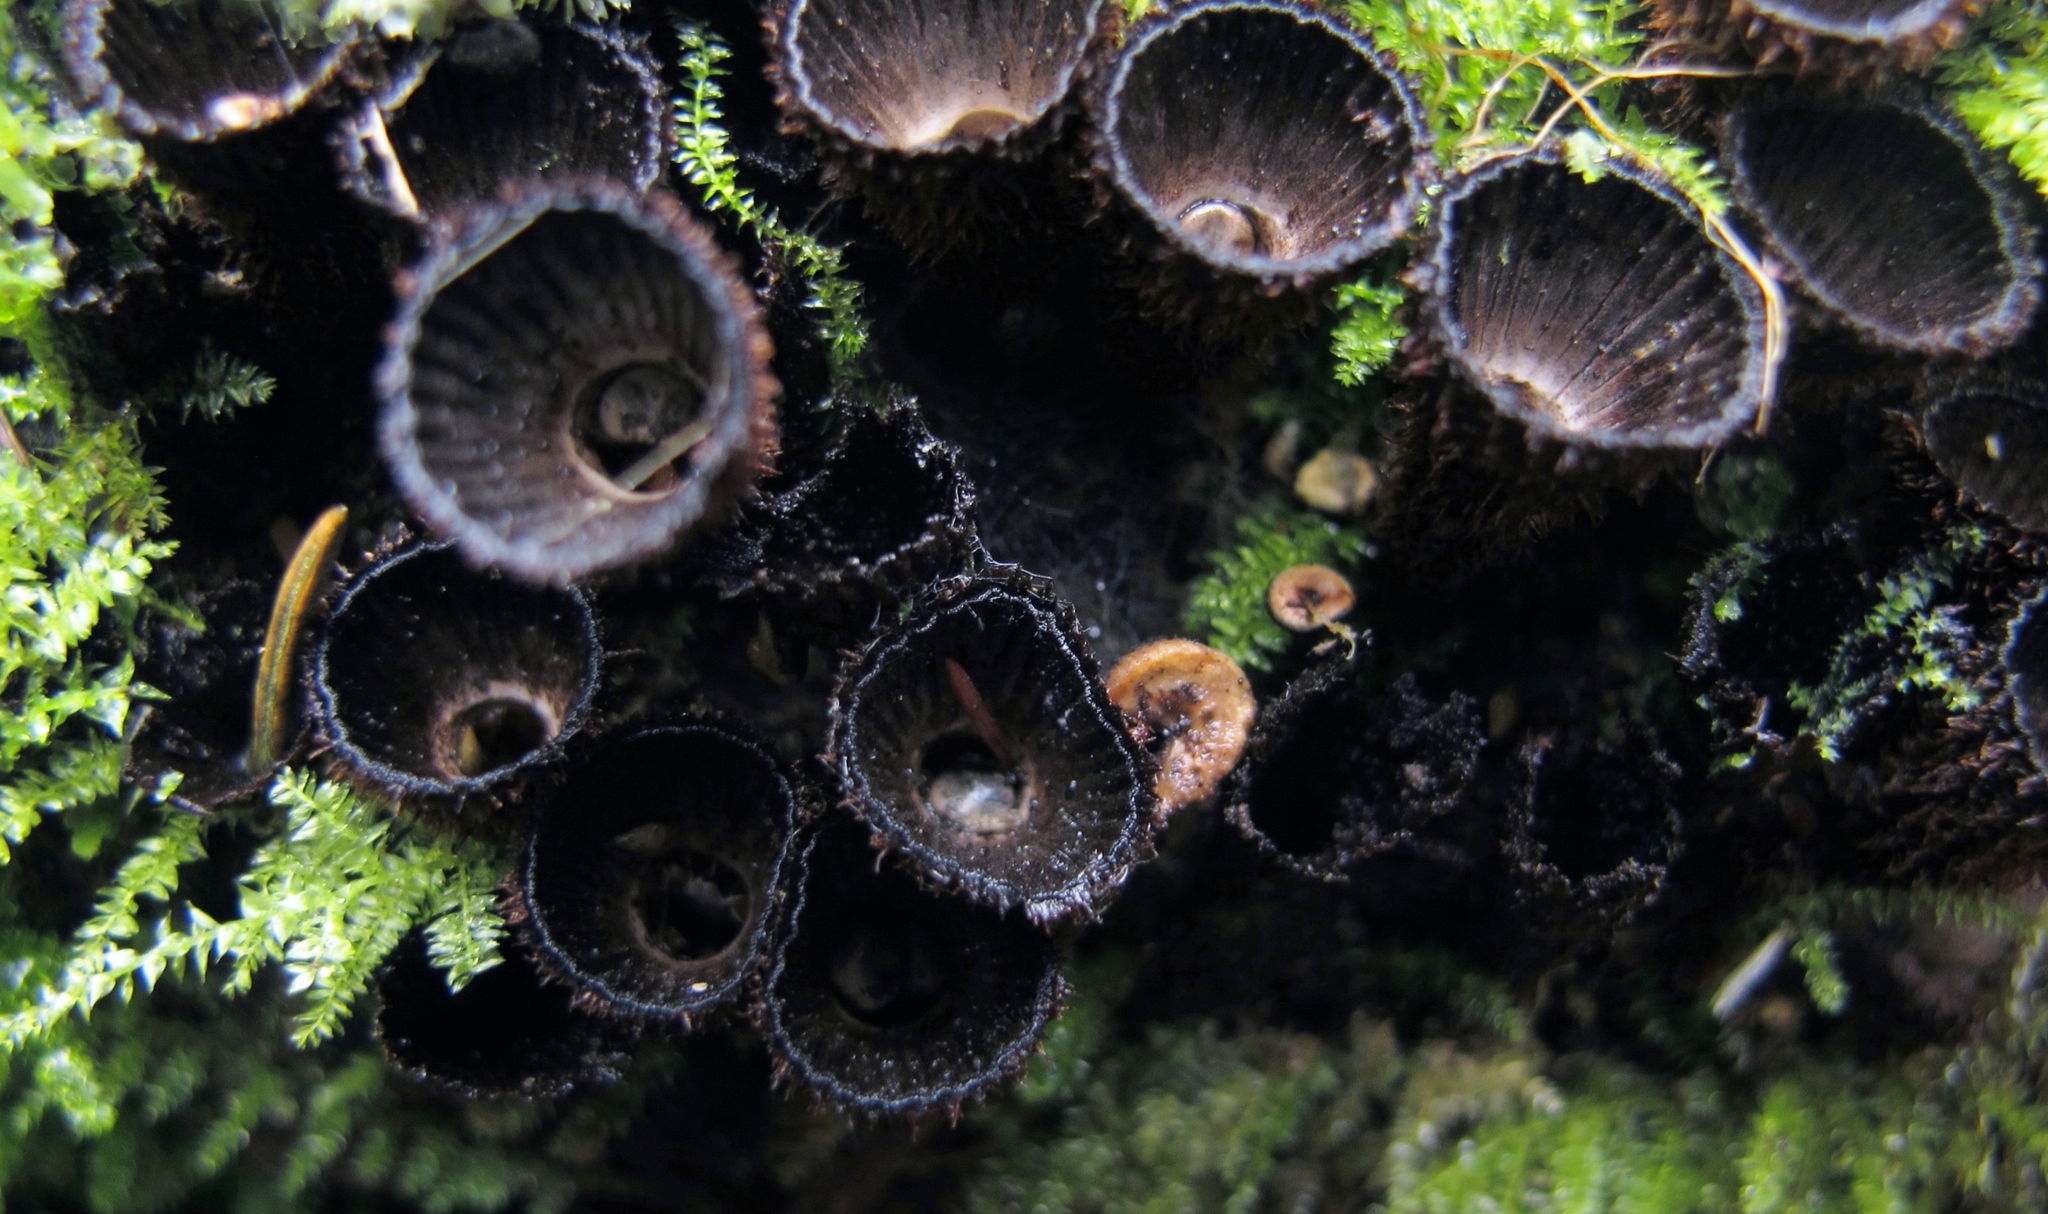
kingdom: Fungi
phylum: Basidiomycota
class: Agaricomycetes
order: Agaricales
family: Agaricaceae
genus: Cyathus
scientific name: Cyathus striatus
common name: Fluted bird's nest
